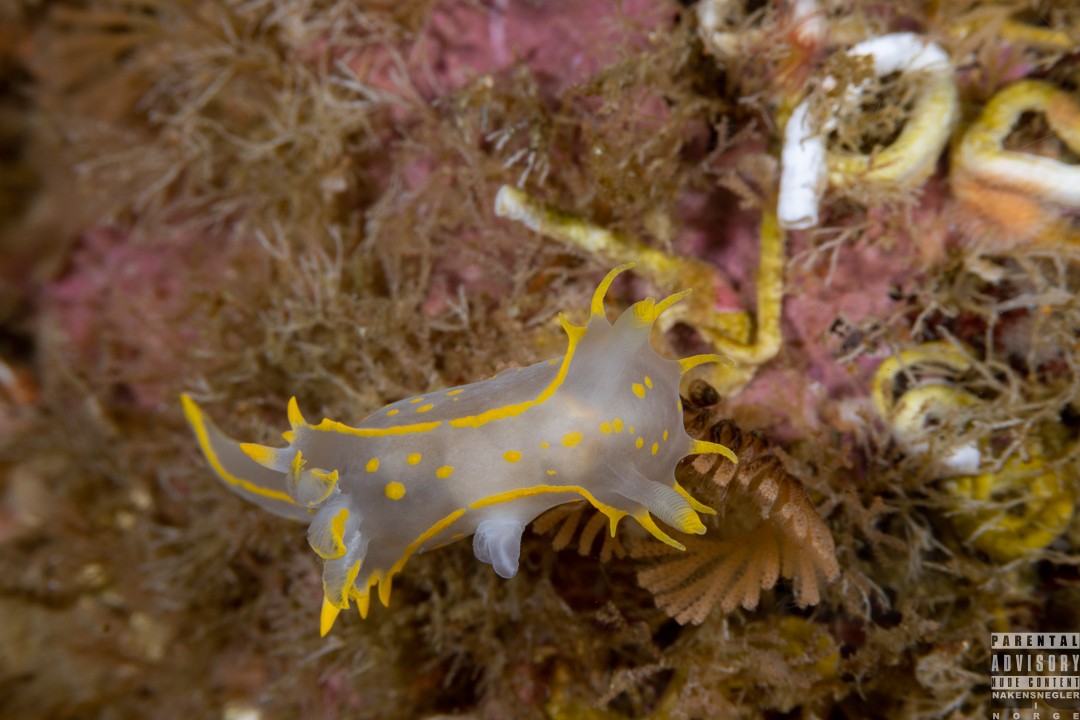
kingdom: Animalia
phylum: Mollusca
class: Gastropoda
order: Nudibranchia
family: Polyceridae
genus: Polycera
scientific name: Polycera faeroensis
